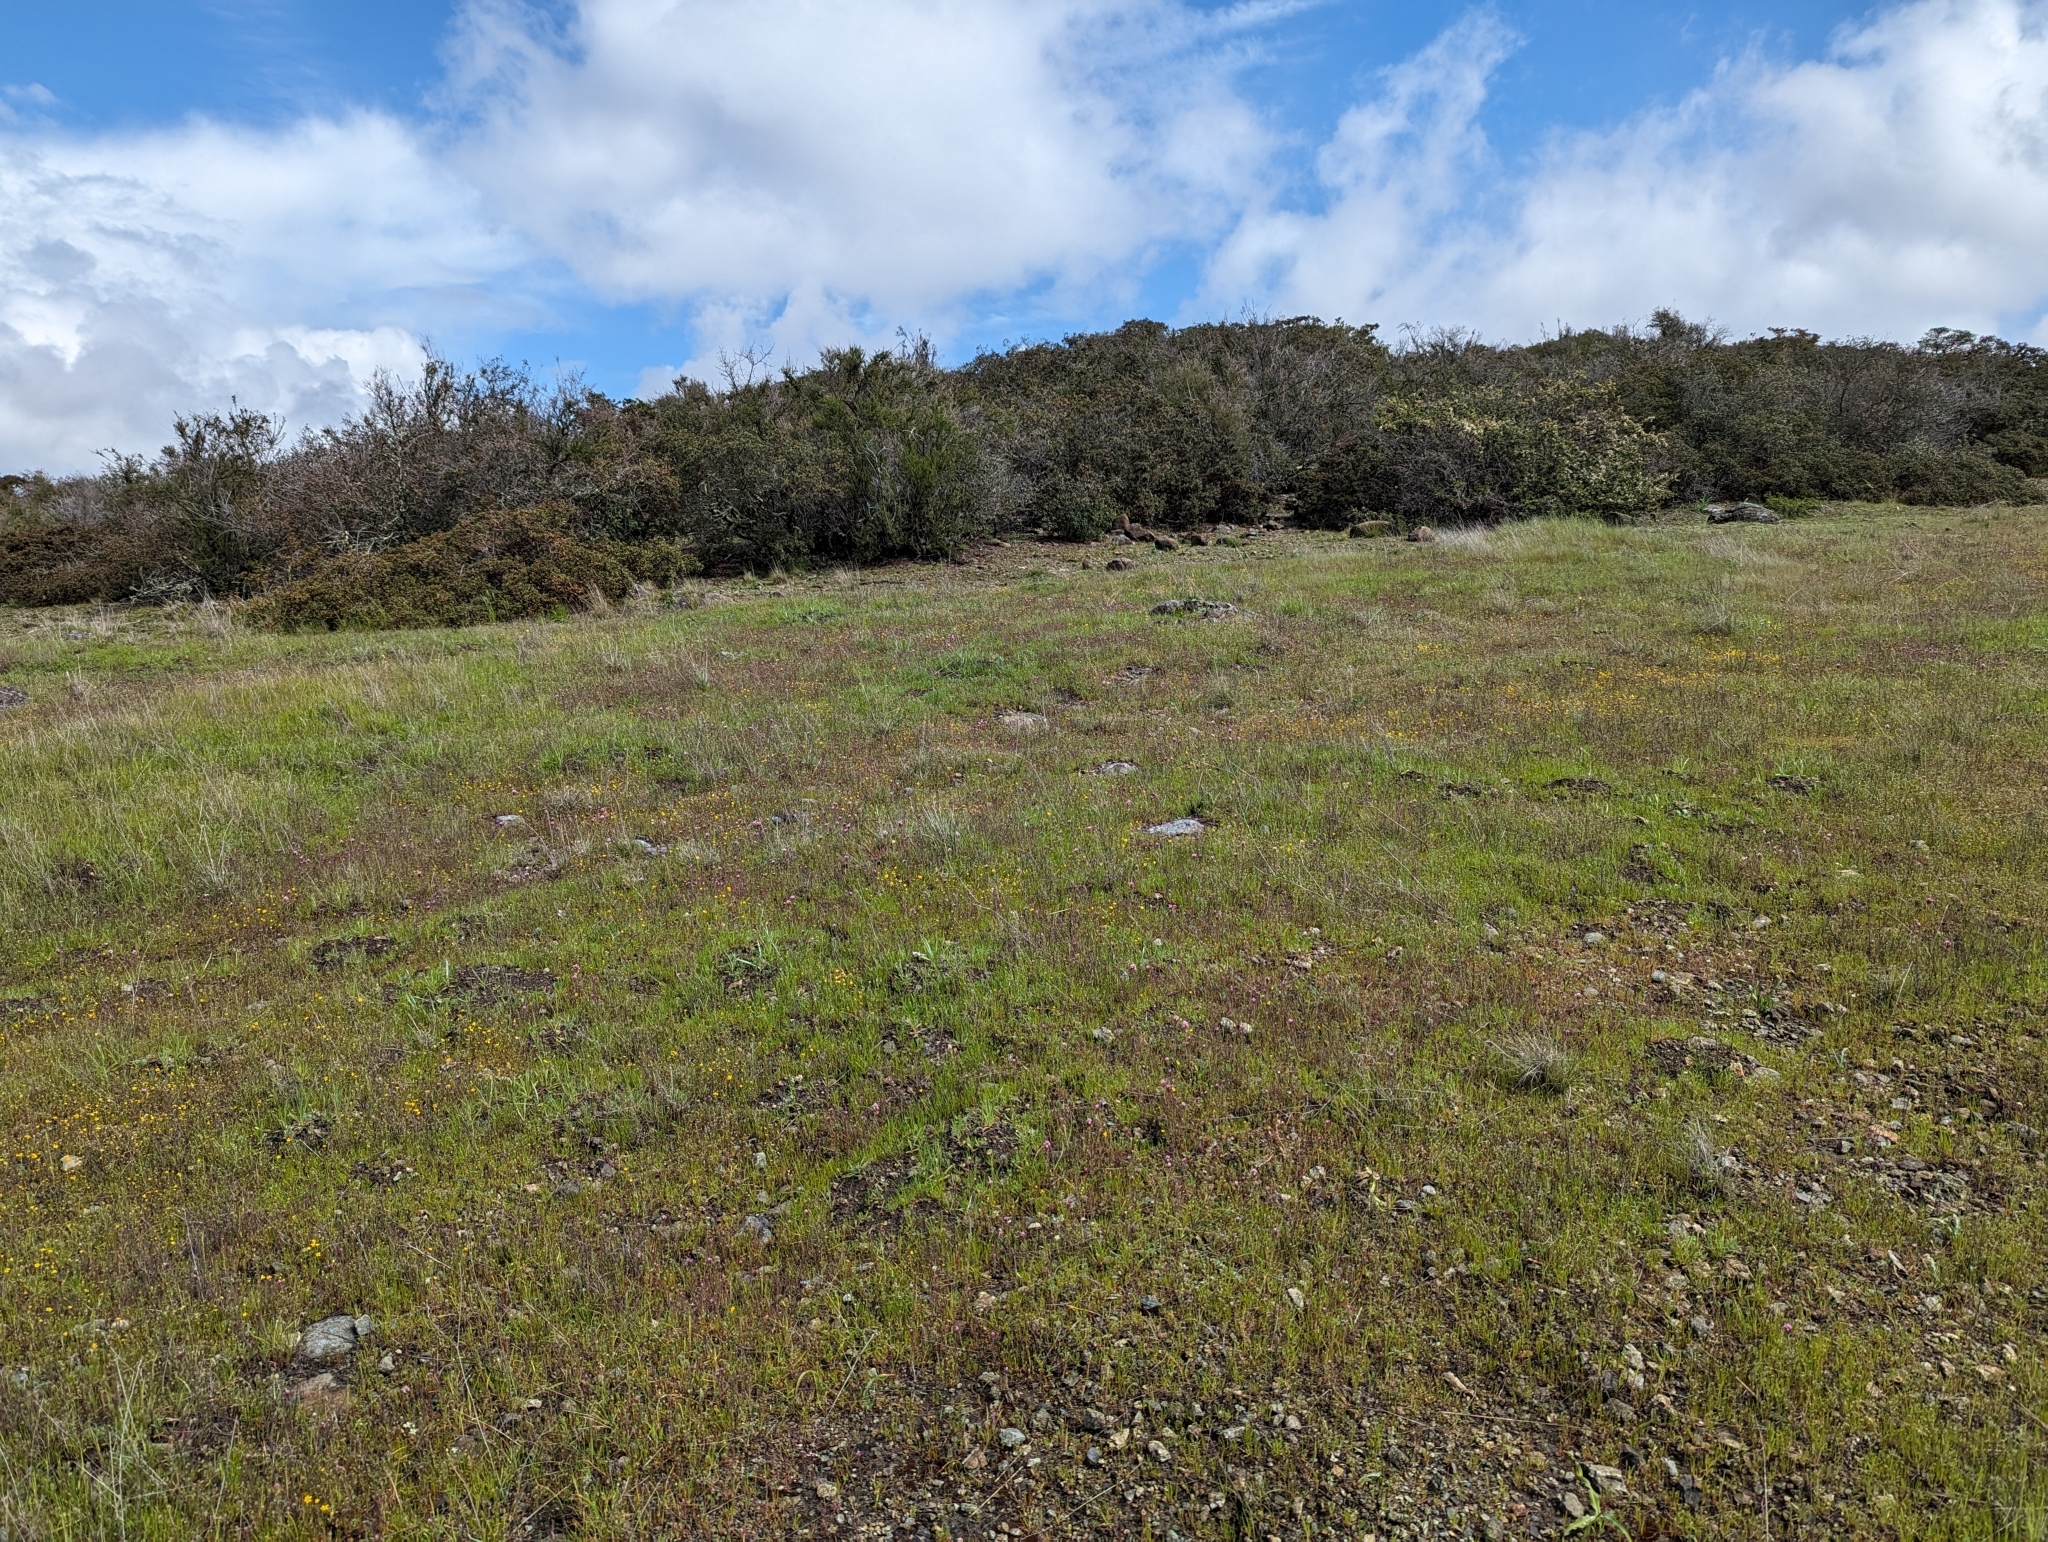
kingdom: Plantae
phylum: Tracheophyta
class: Liliopsida
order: Asparagales
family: Asparagaceae
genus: Muilla
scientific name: Muilla maritima
